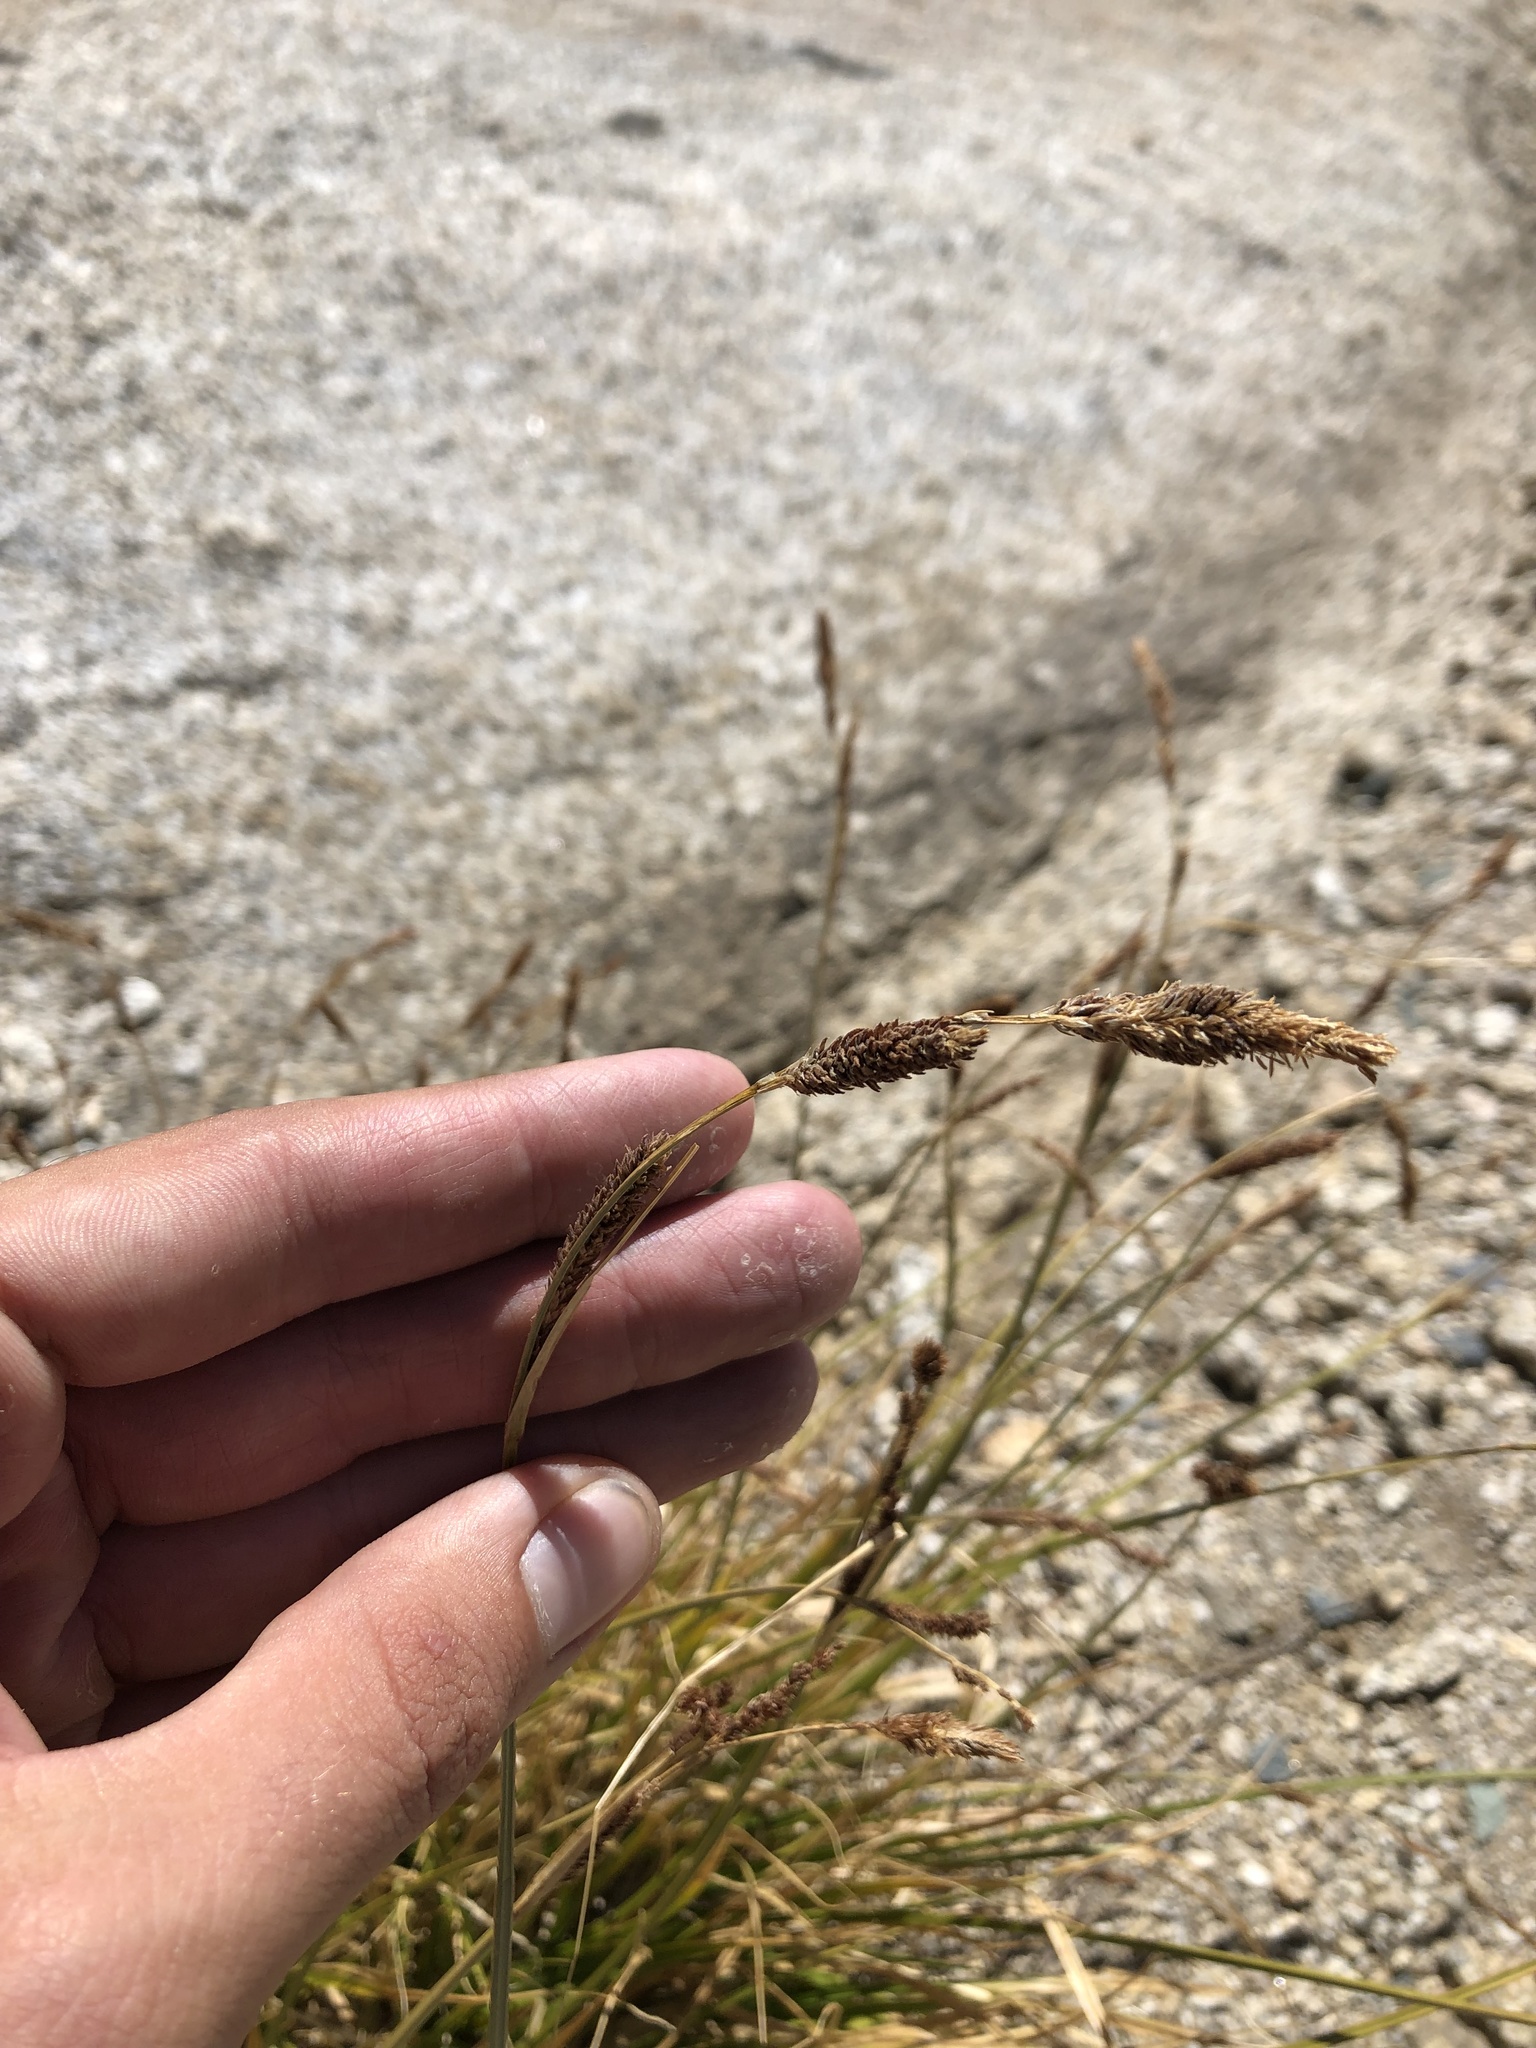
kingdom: Plantae
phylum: Tracheophyta
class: Liliopsida
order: Poales
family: Cyperaceae
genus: Carex
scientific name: Carex congdonii
